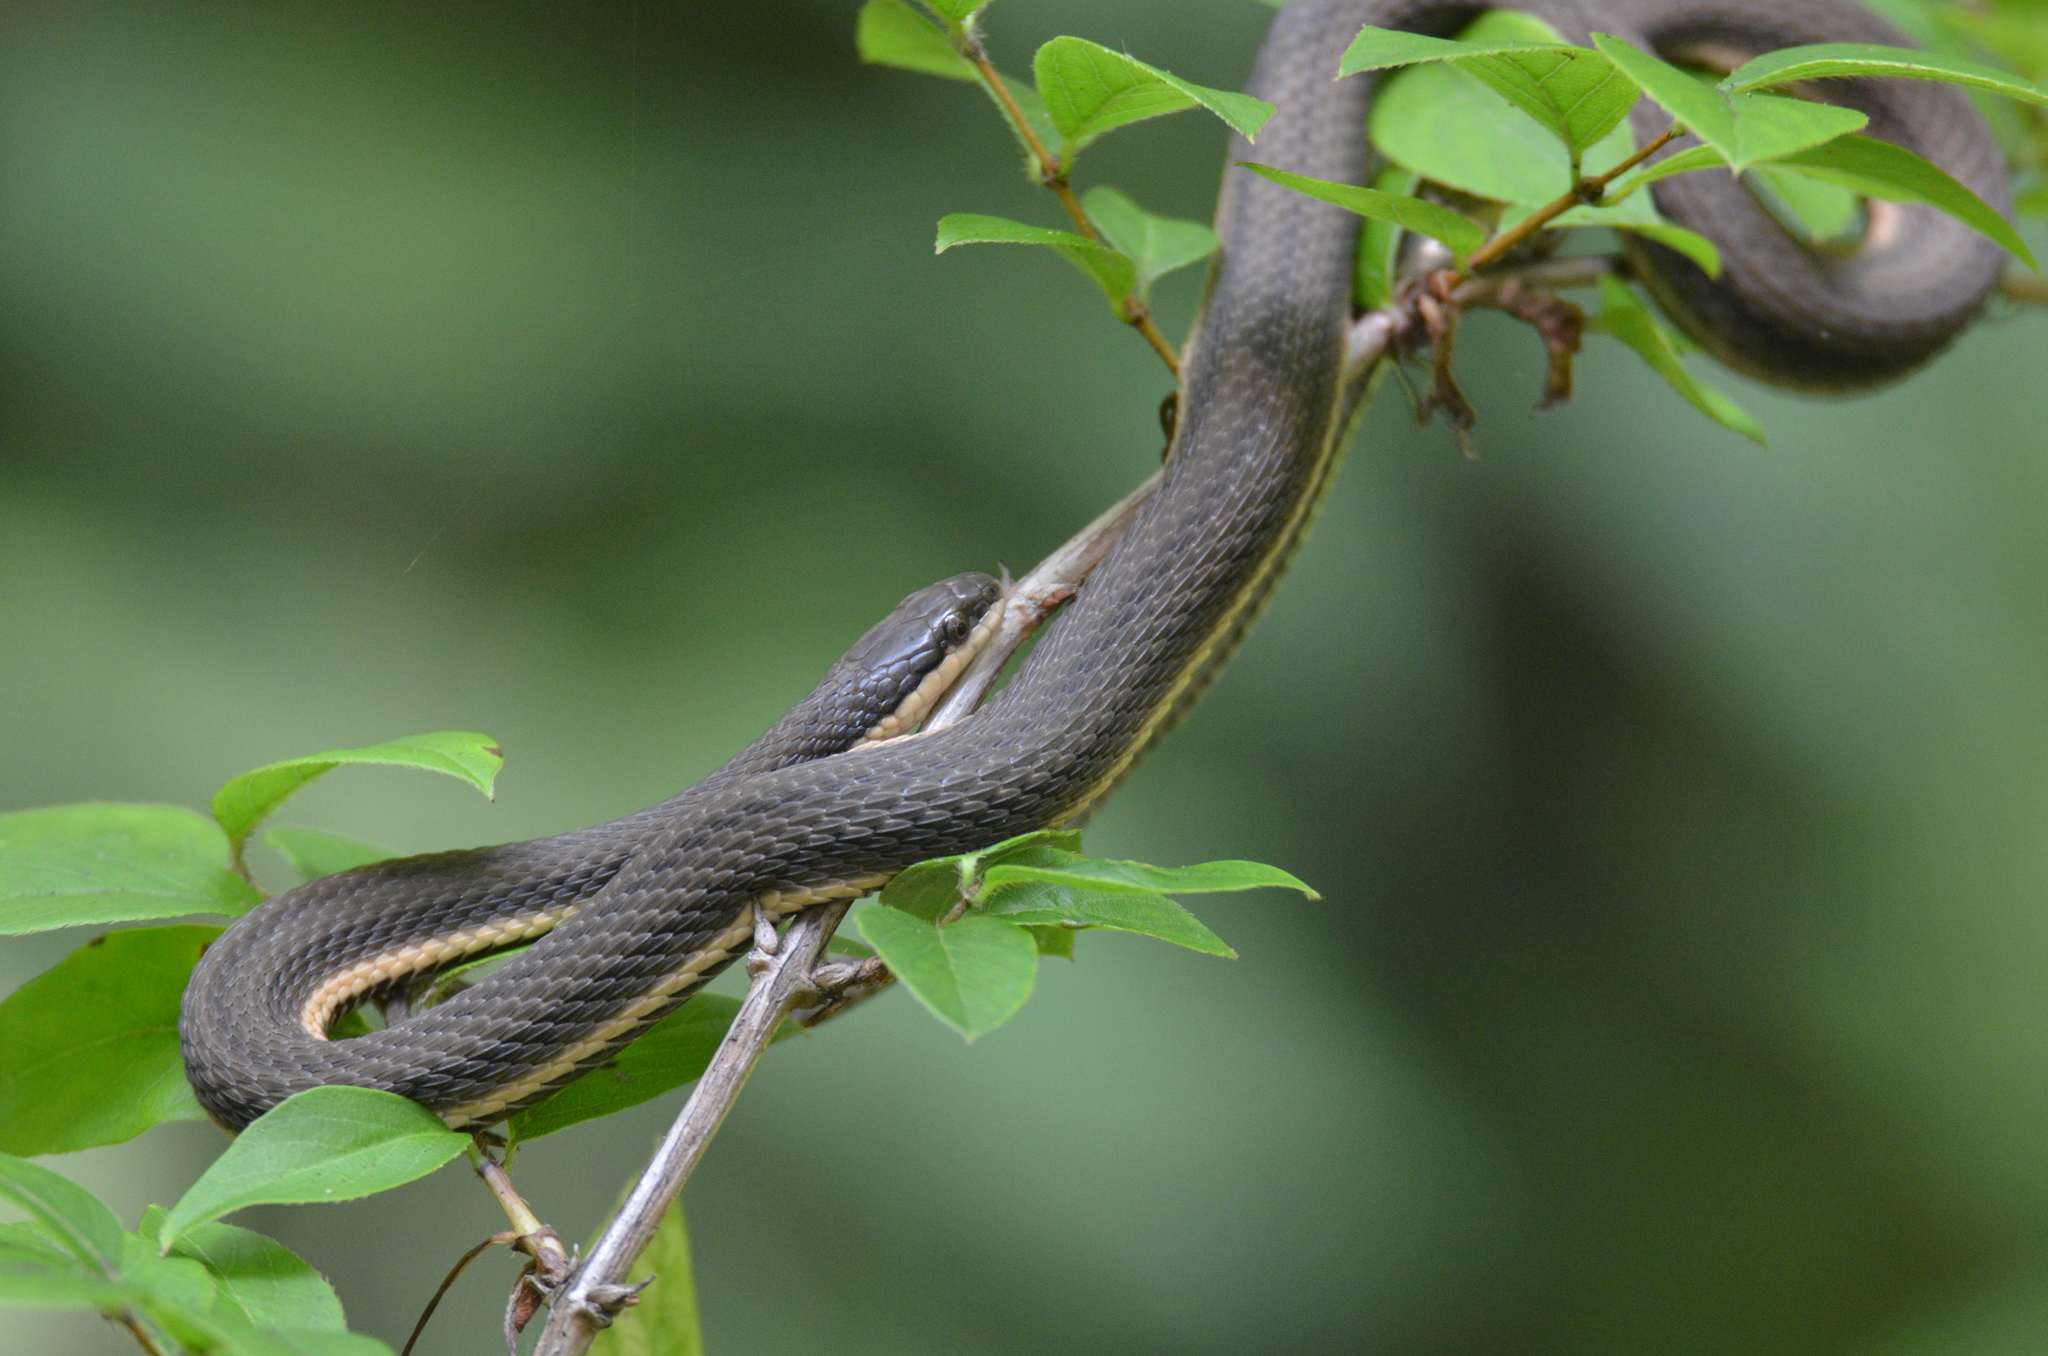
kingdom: Animalia
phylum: Chordata
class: Squamata
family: Colubridae
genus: Regina
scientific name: Regina septemvittata
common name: Queen snake
